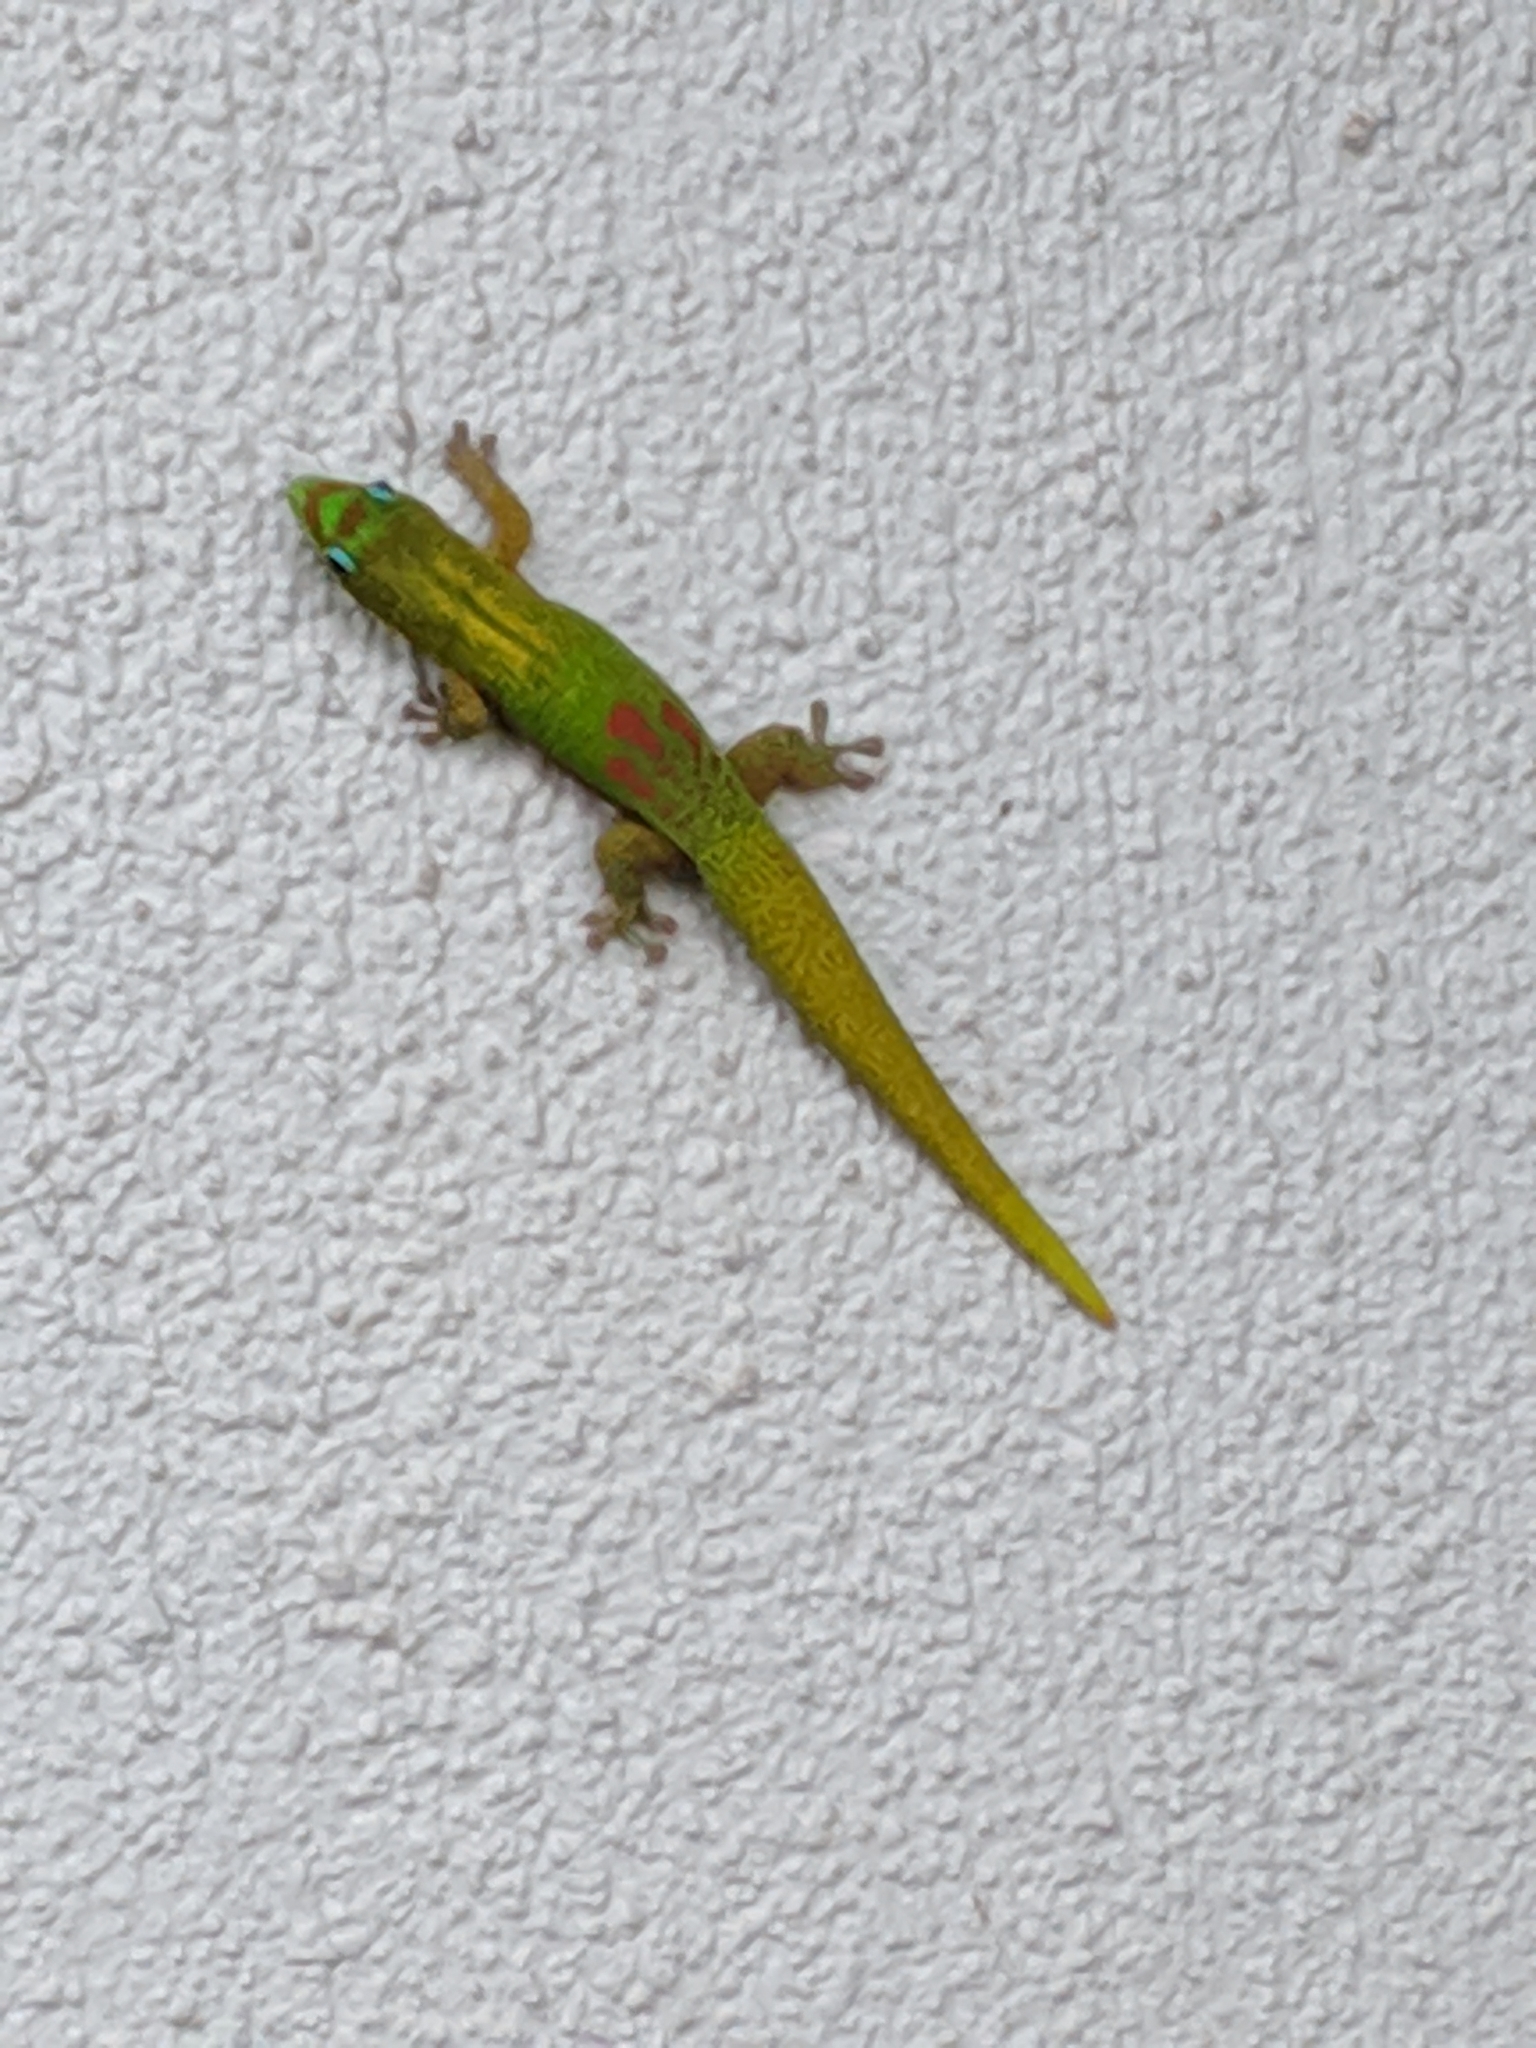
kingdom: Animalia
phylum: Chordata
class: Squamata
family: Gekkonidae
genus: Phelsuma
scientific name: Phelsuma laticauda
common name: Gold dust day gecko
